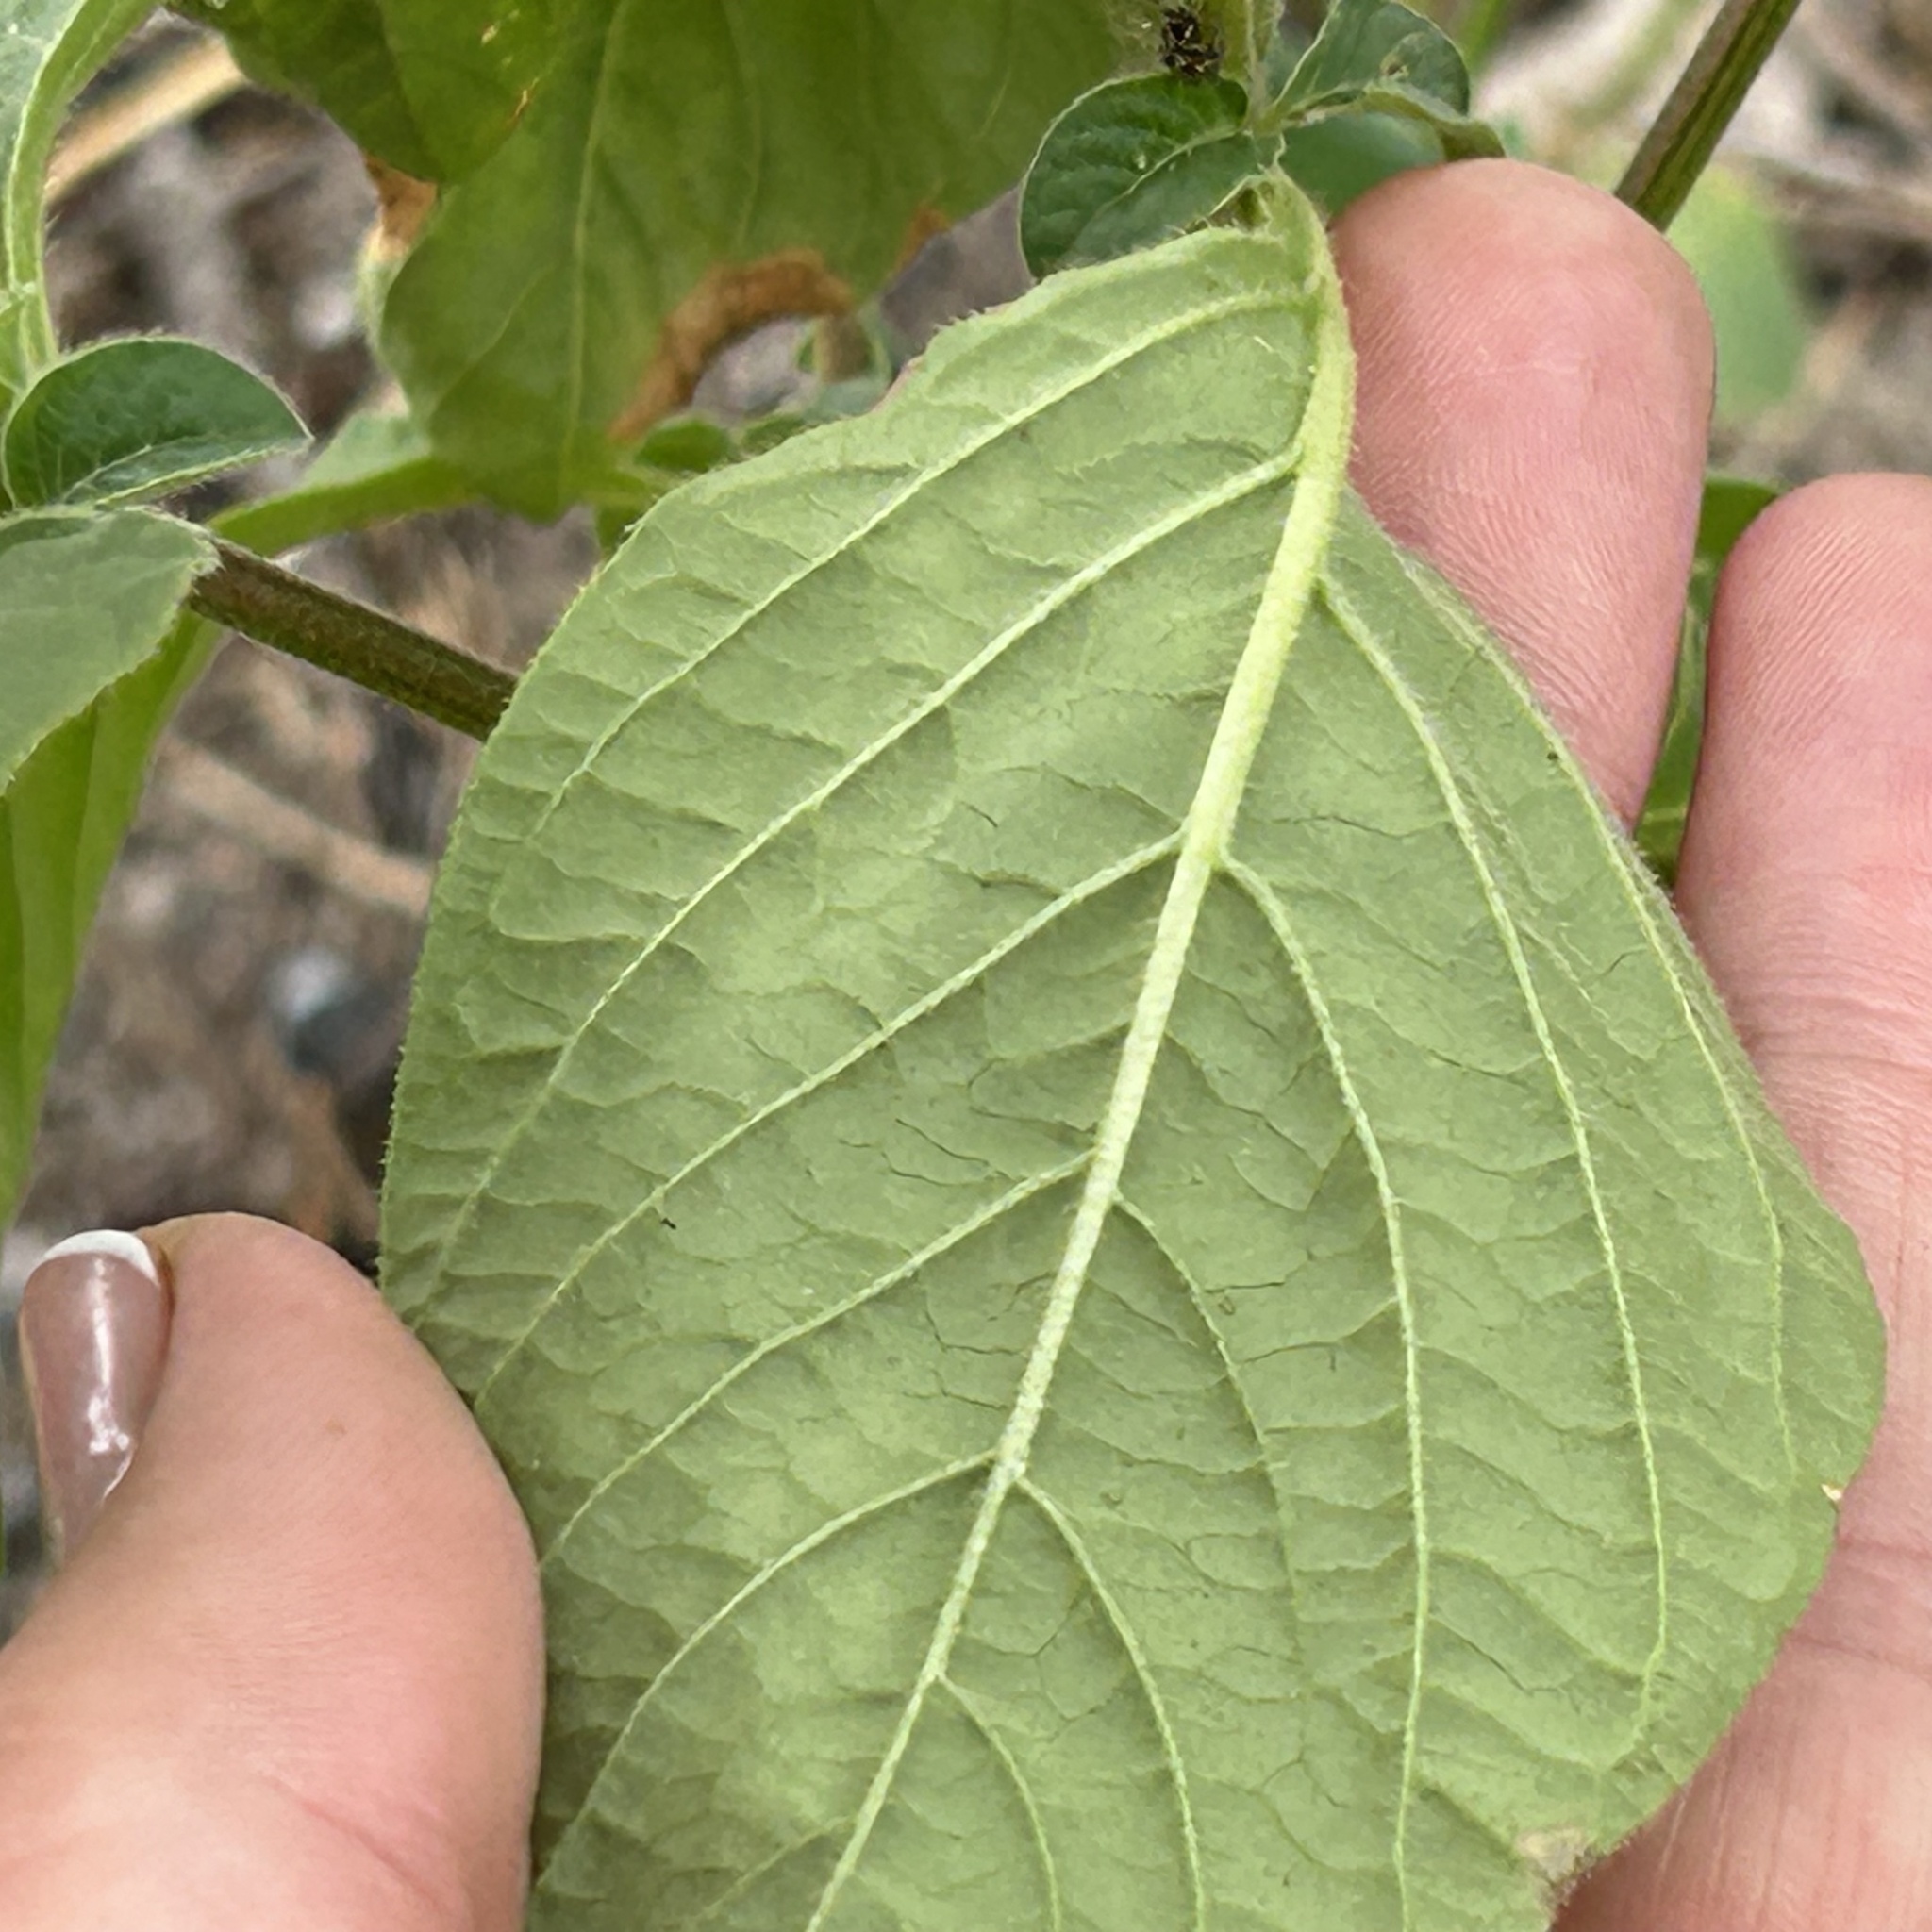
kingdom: Plantae
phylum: Tracheophyta
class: Magnoliopsida
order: Caryophyllales
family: Amaranthaceae
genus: Cyathula
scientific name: Cyathula orthacantha
